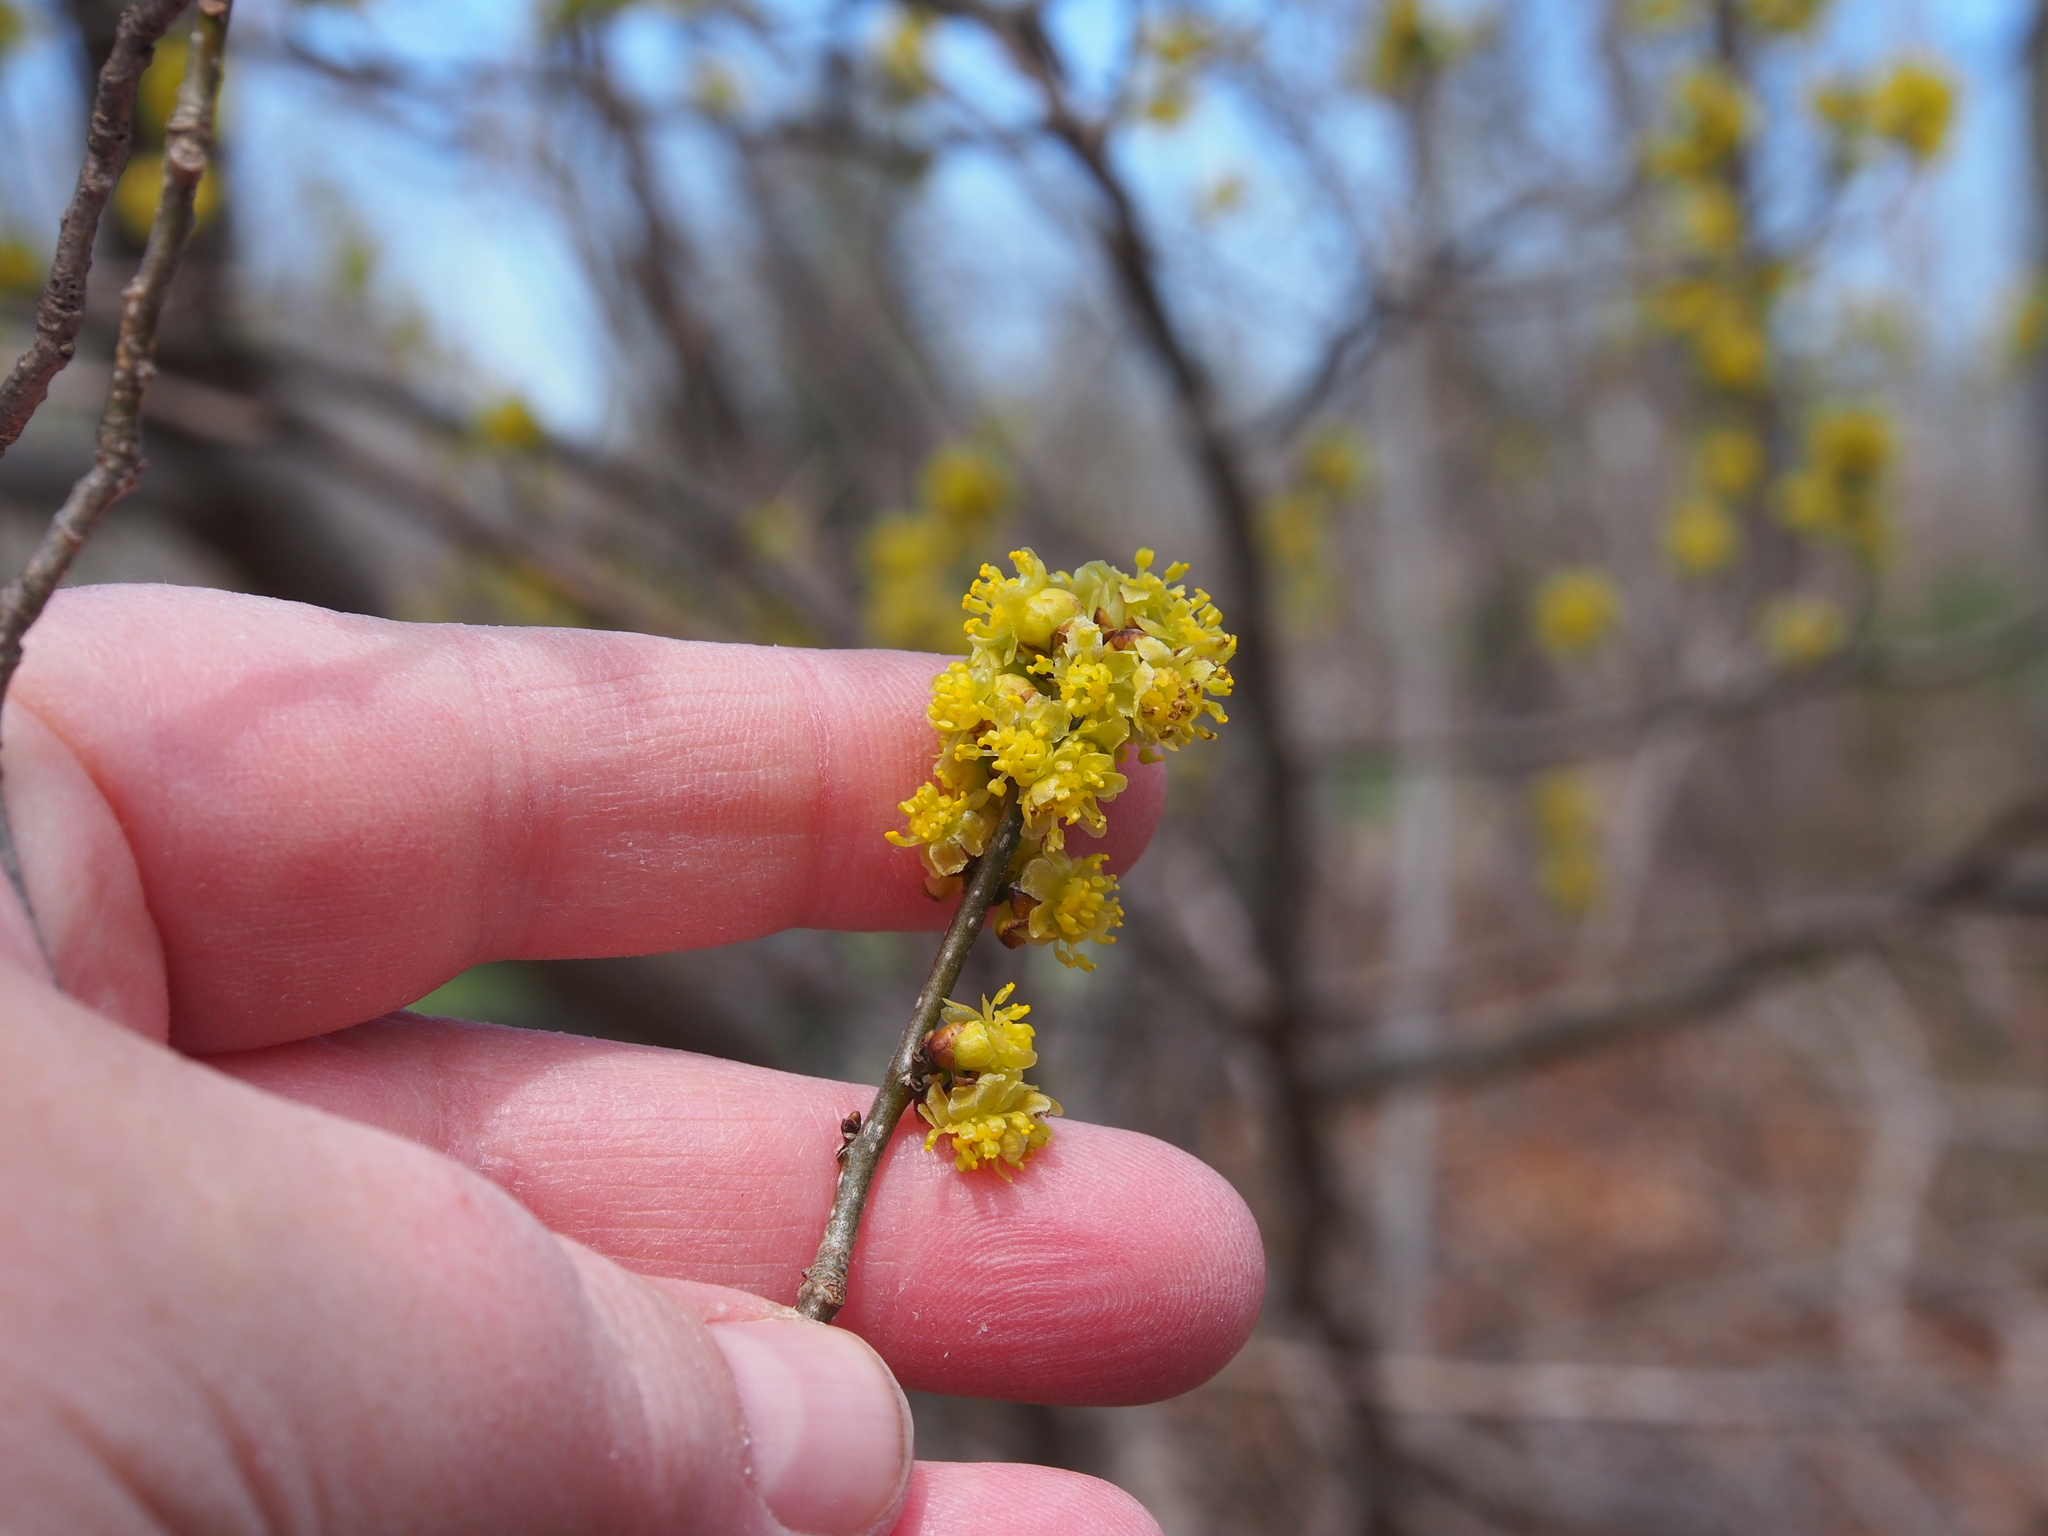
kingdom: Plantae
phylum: Tracheophyta
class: Magnoliopsida
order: Laurales
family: Lauraceae
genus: Lindera
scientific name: Lindera benzoin
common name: Spicebush
